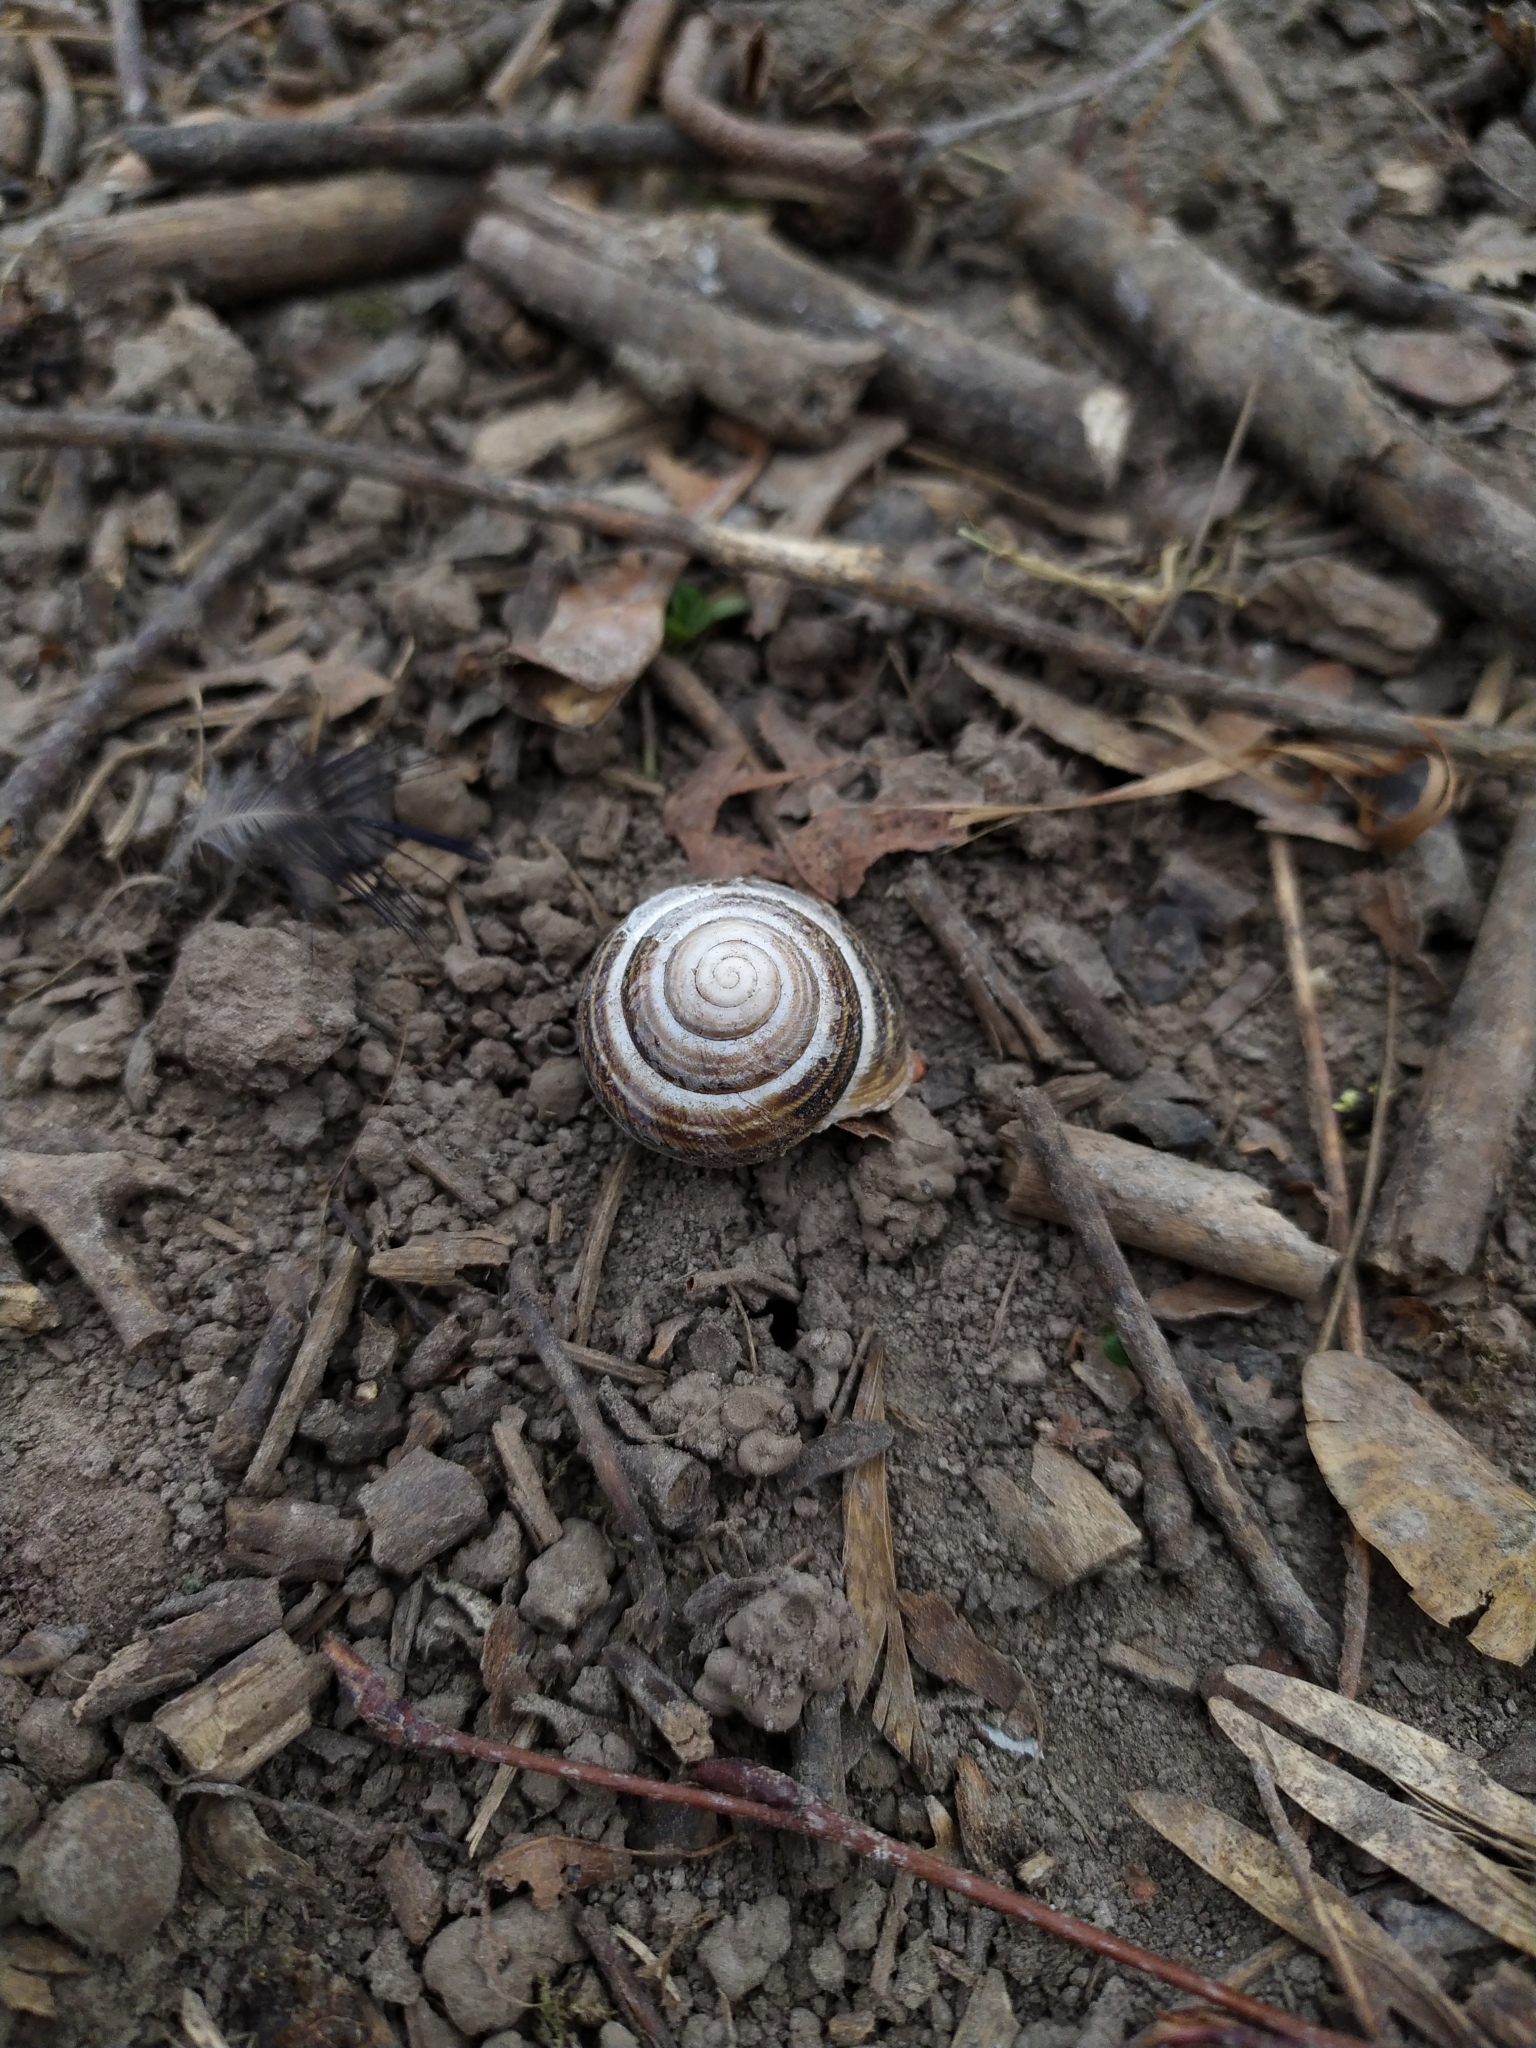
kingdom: Animalia
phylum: Mollusca
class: Gastropoda
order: Stylommatophora
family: Helicidae
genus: Caucasotachea
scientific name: Caucasotachea vindobonensis
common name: European helicid land snail
